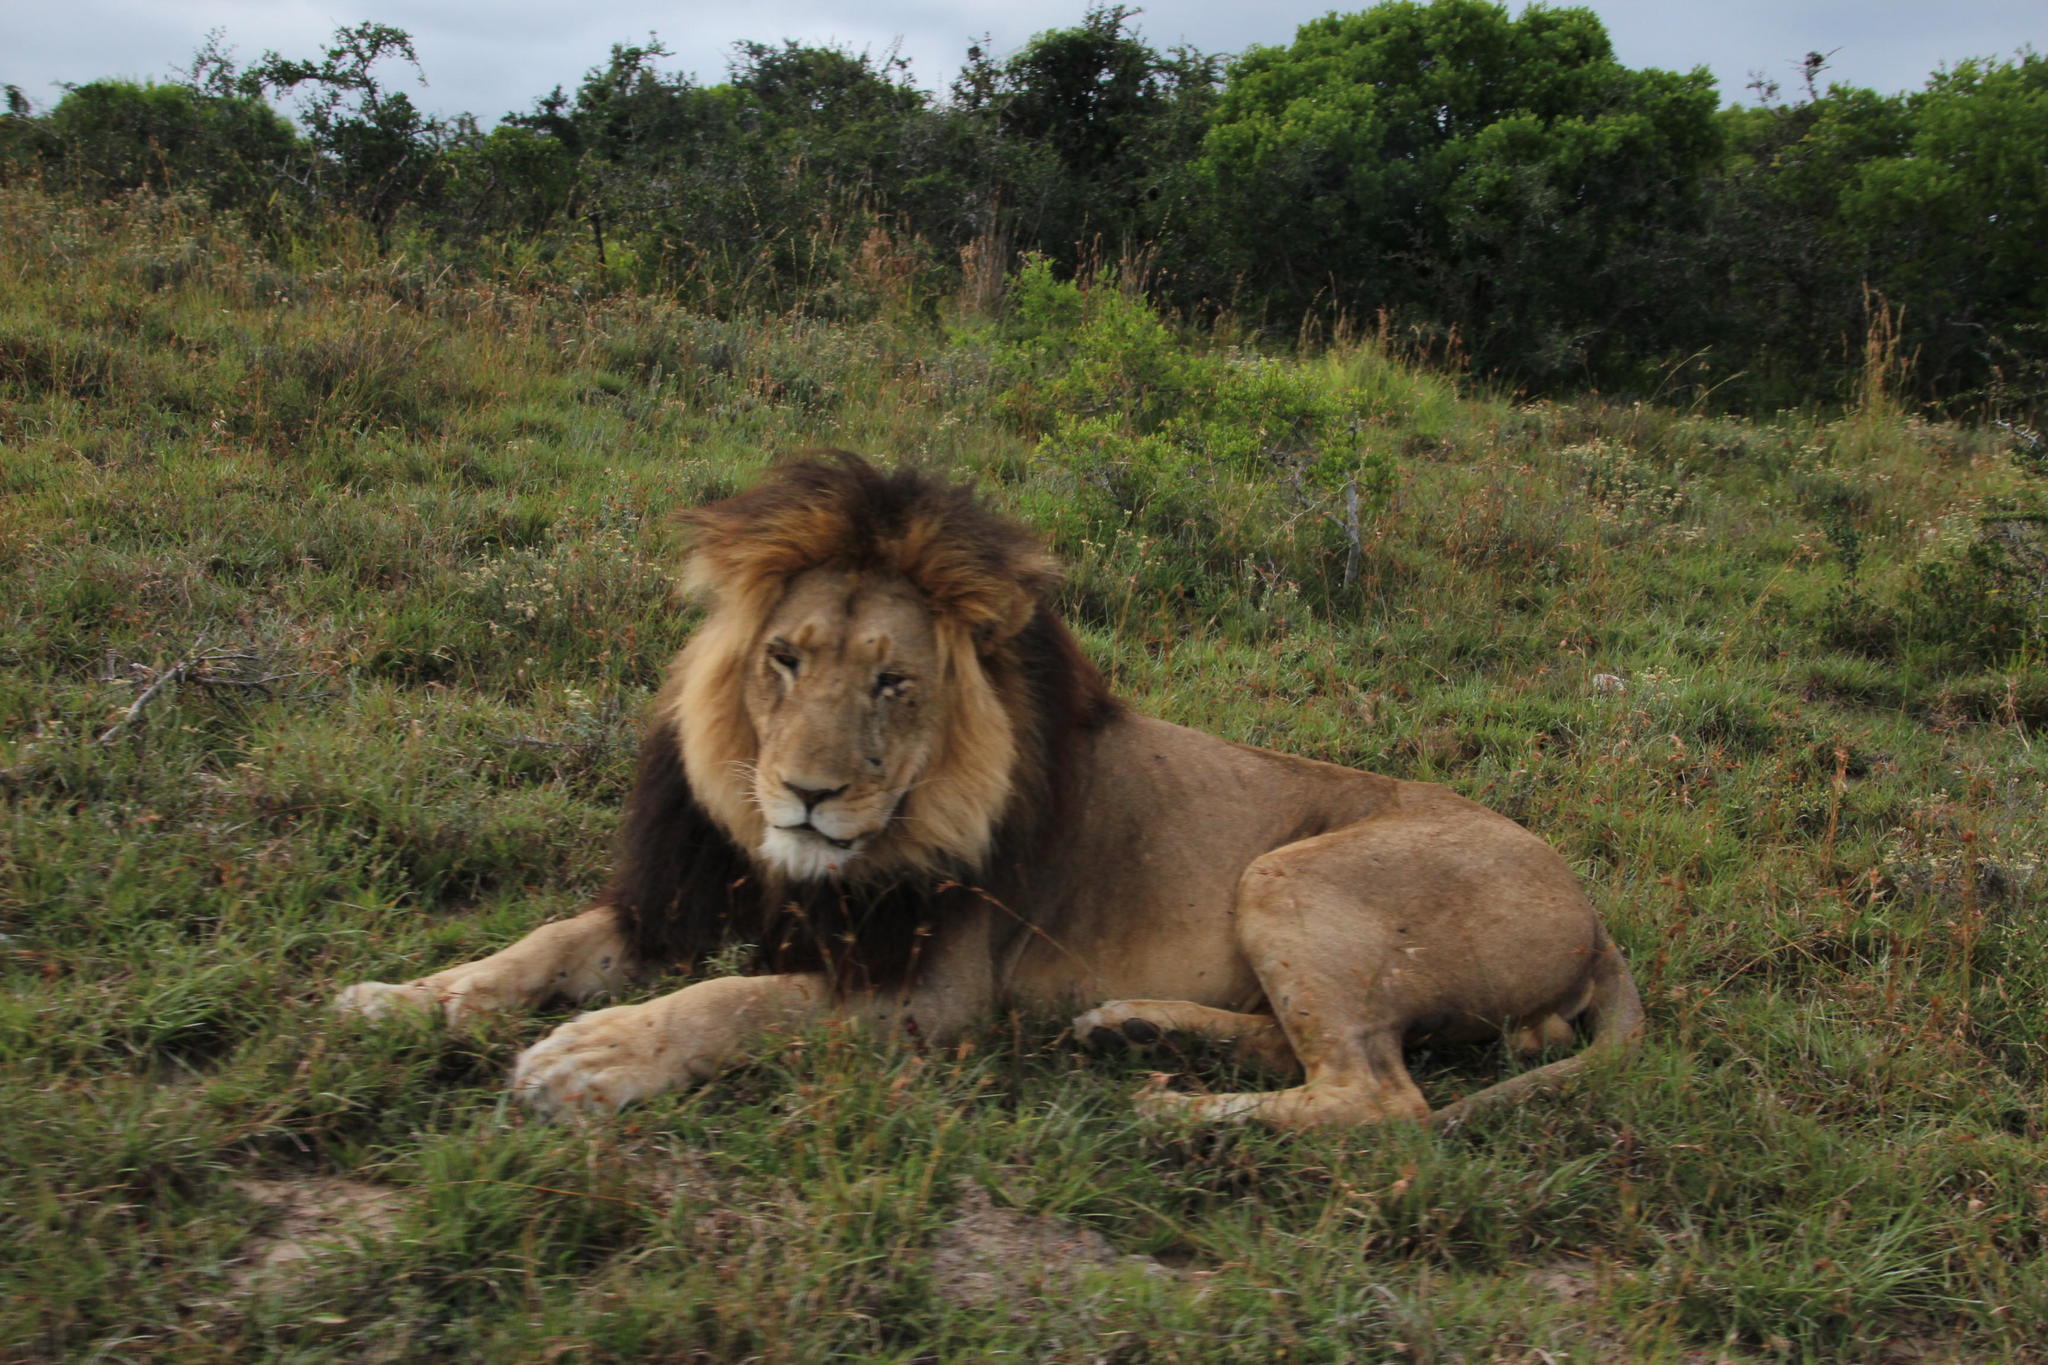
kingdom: Animalia
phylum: Chordata
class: Mammalia
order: Carnivora
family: Felidae
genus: Panthera
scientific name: Panthera leo
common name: Lion
